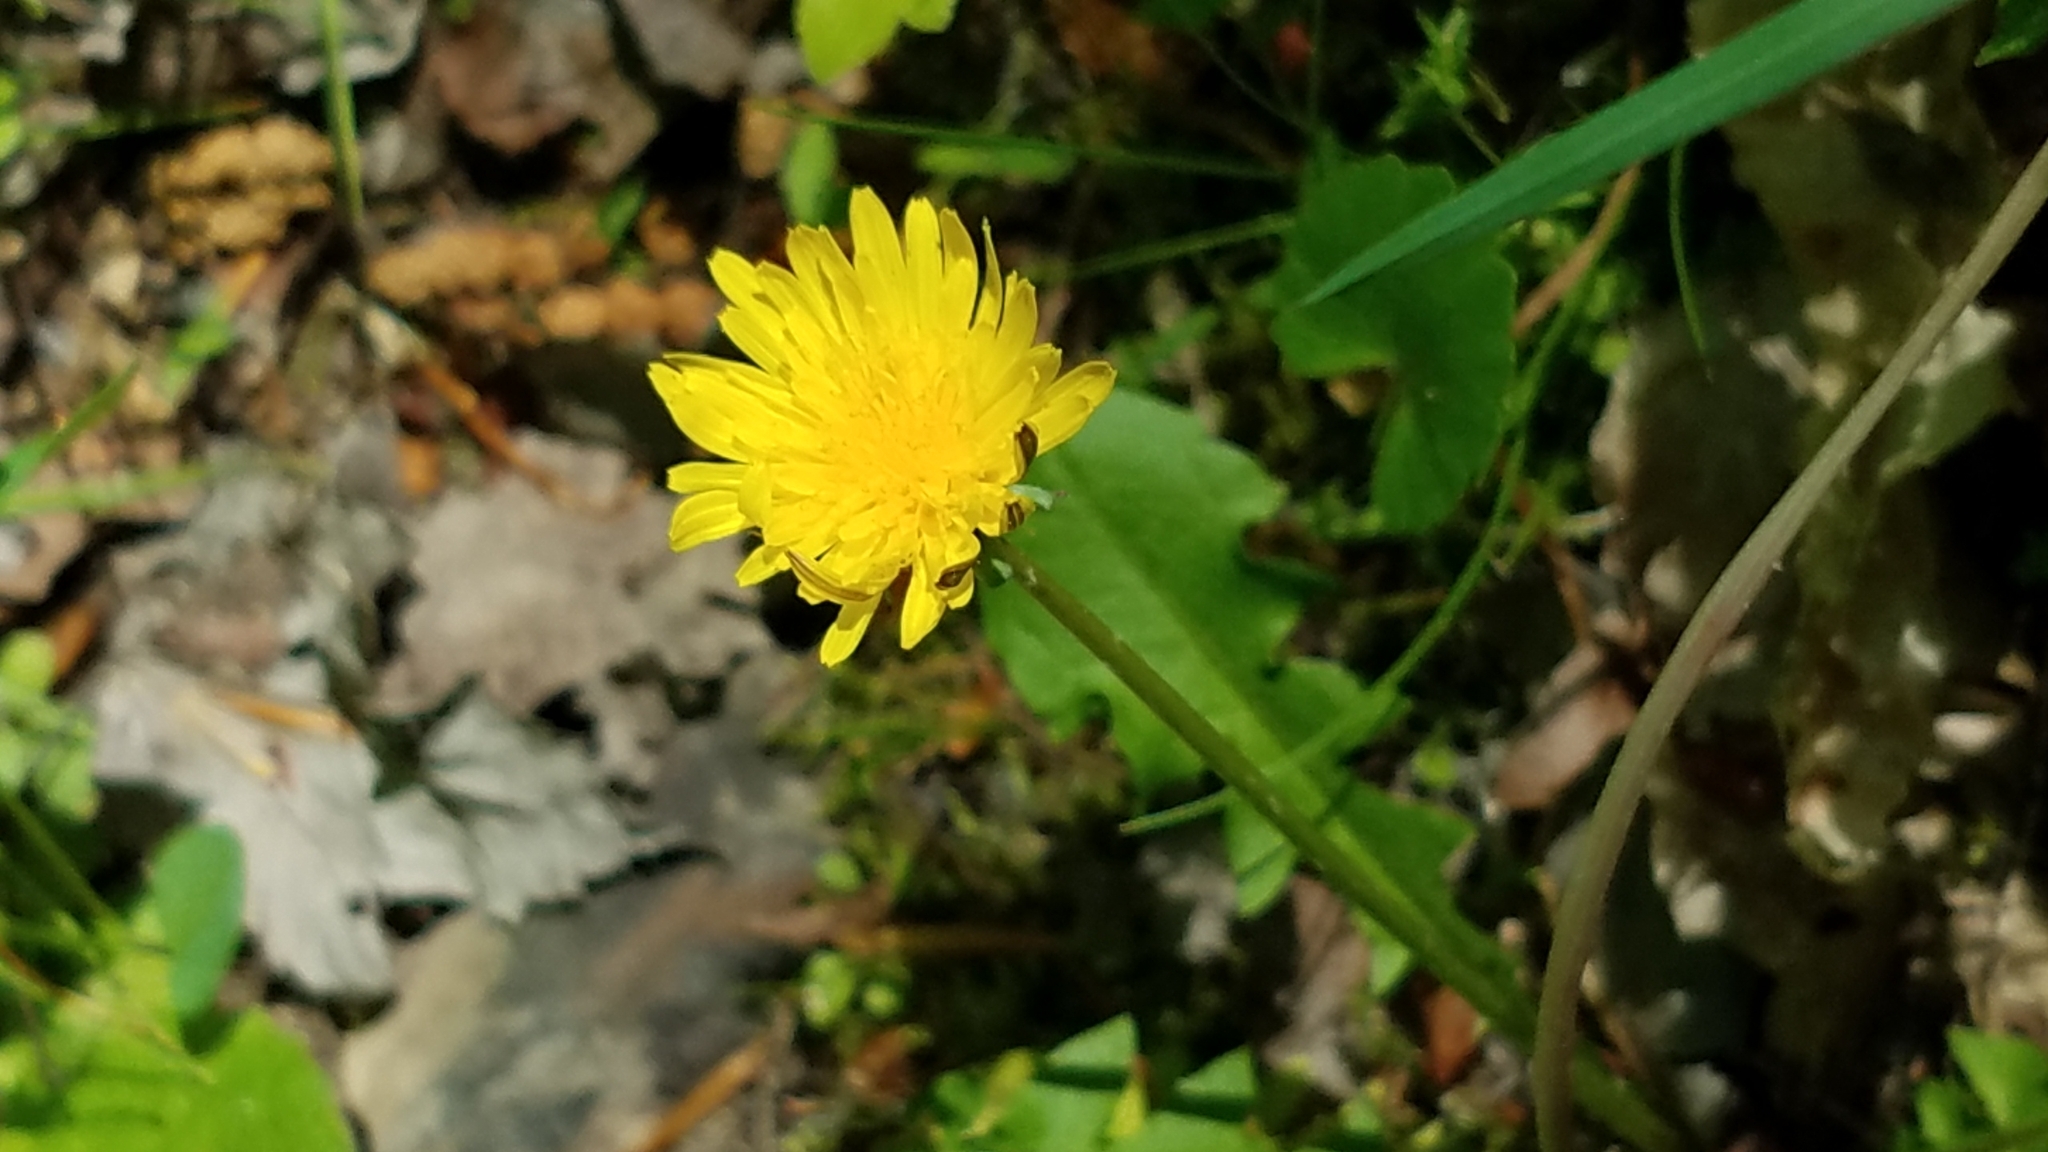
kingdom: Plantae
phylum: Tracheophyta
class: Magnoliopsida
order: Asterales
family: Asteraceae
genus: Taraxacum
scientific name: Taraxacum officinale
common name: Common dandelion
